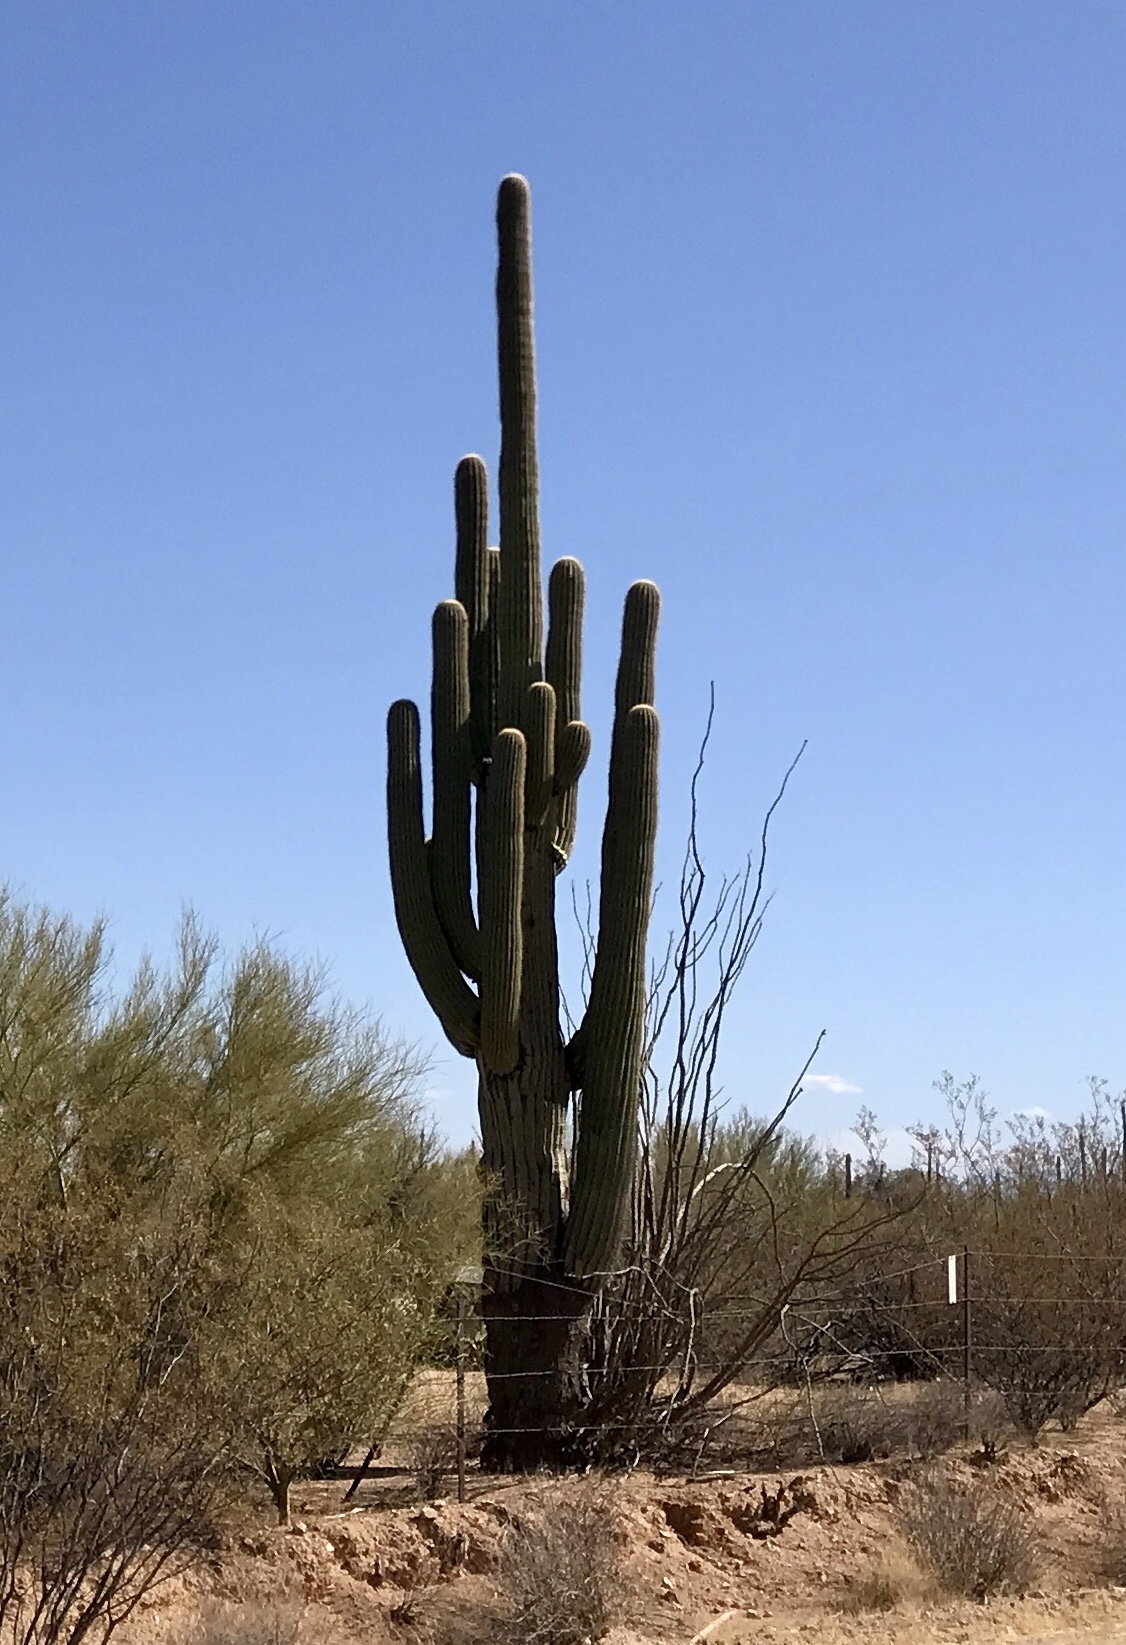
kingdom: Plantae
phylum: Tracheophyta
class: Magnoliopsida
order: Caryophyllales
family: Cactaceae
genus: Carnegiea
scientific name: Carnegiea gigantea
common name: Saguaro
